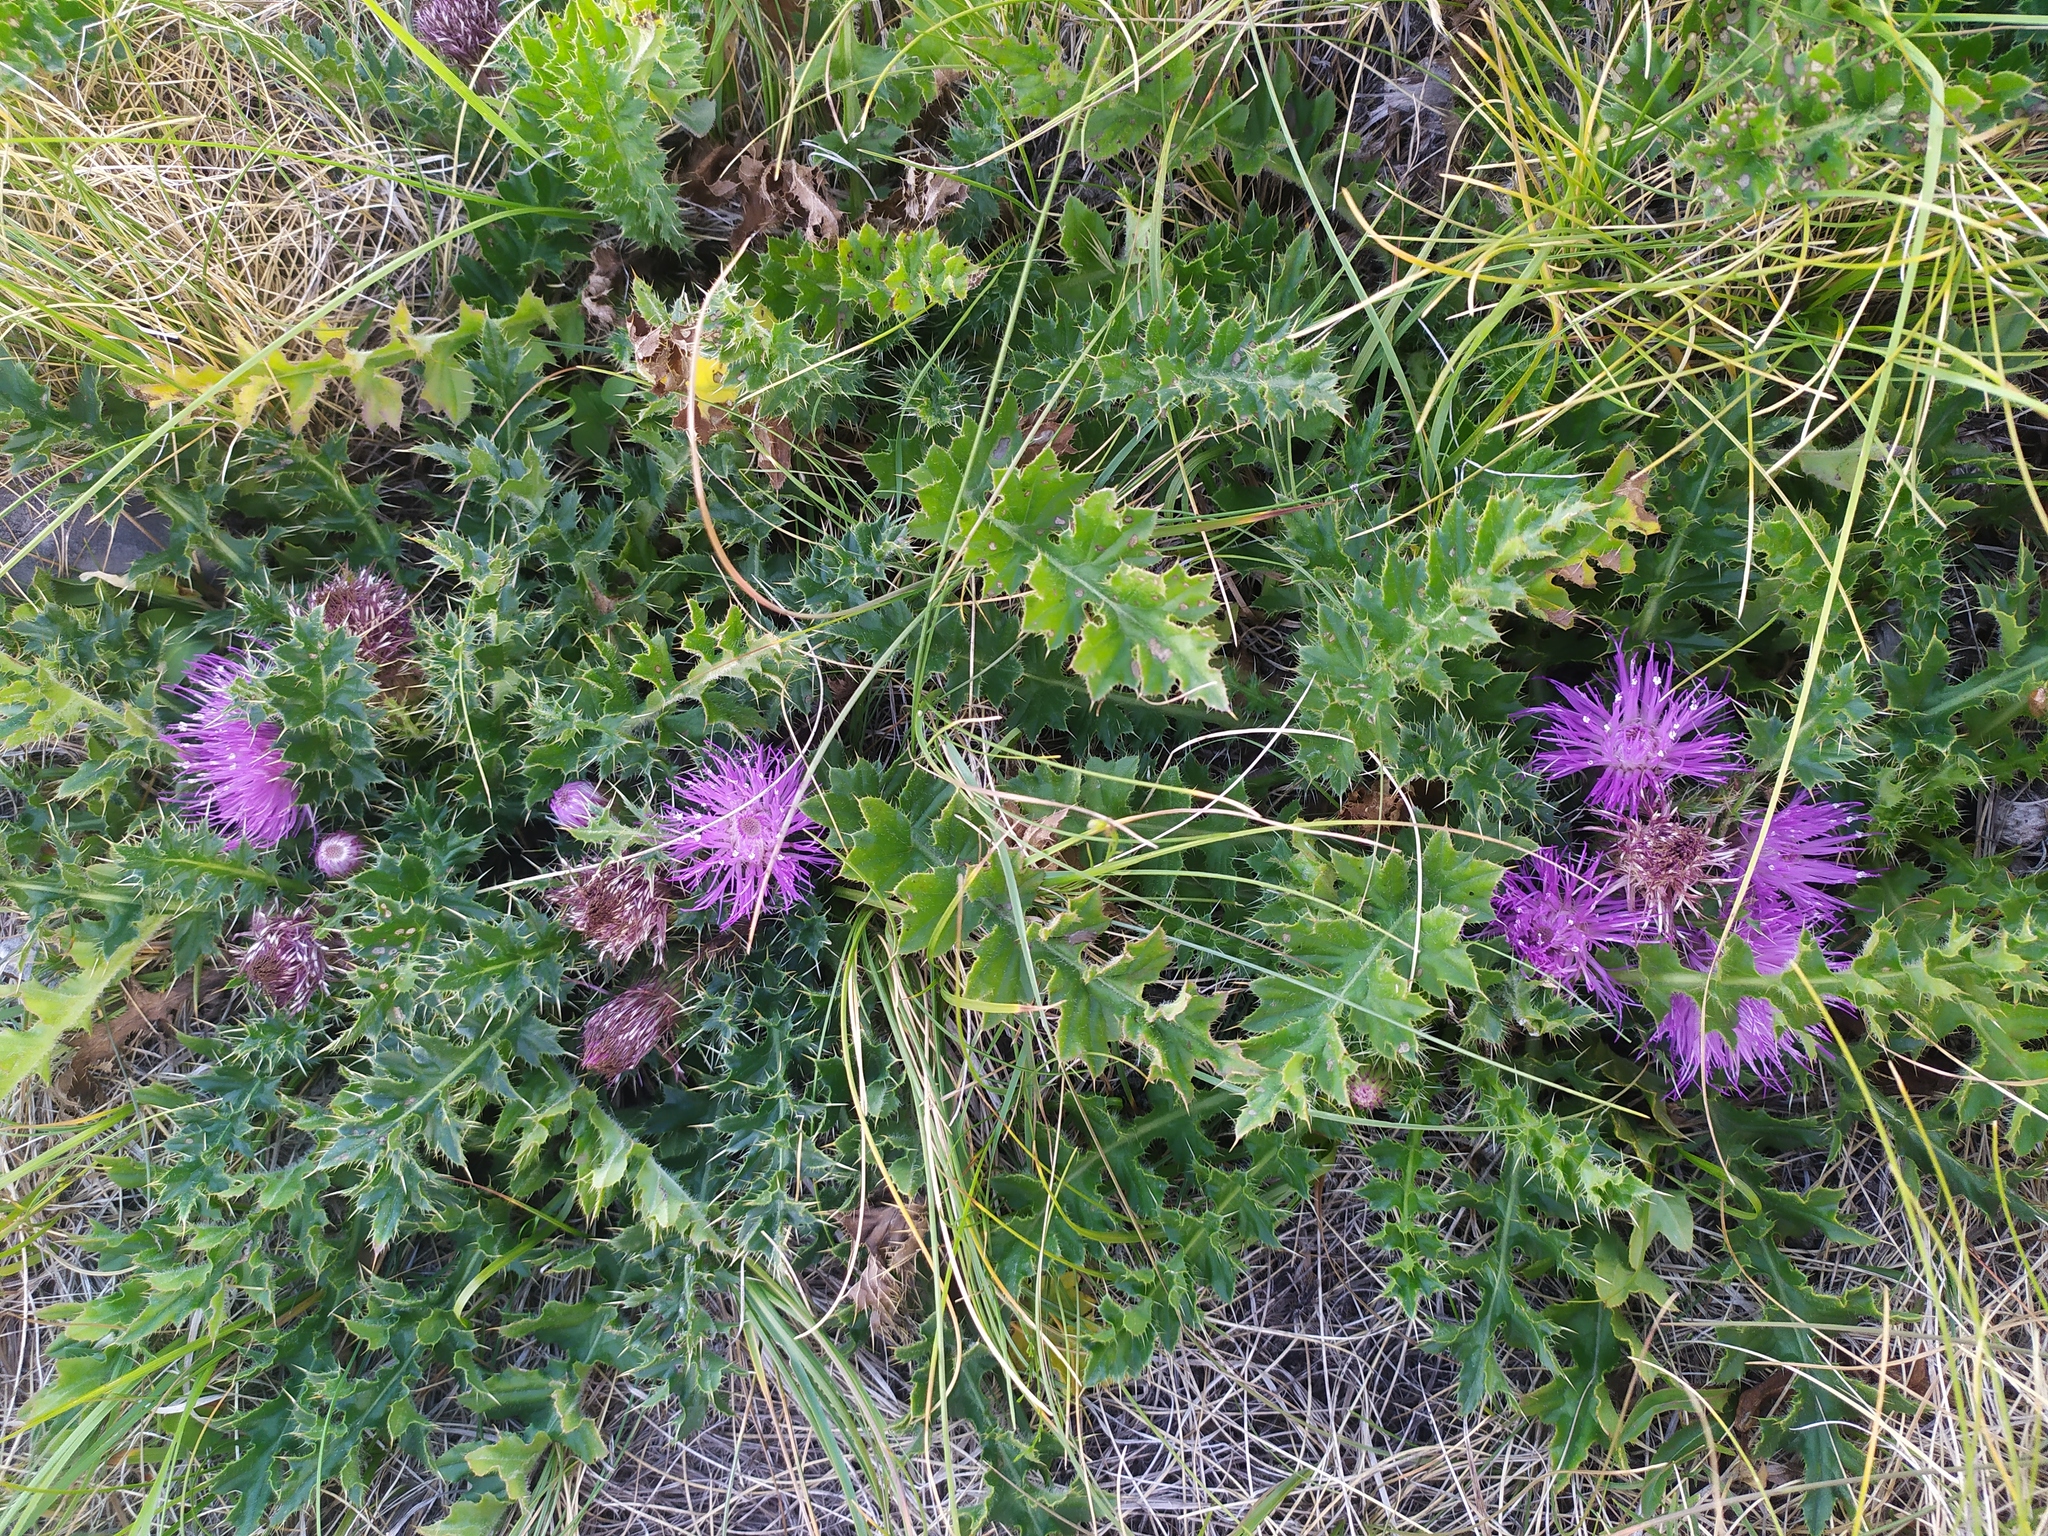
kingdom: Plantae
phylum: Tracheophyta
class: Magnoliopsida
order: Asterales
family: Asteraceae
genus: Cirsium
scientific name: Cirsium acaulon
